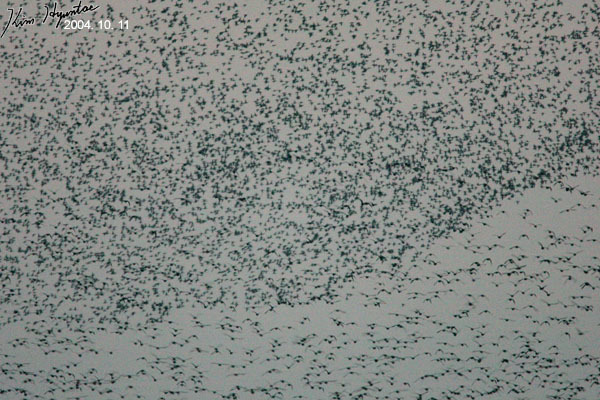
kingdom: Animalia
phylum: Chordata
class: Aves
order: Anseriformes
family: Anatidae
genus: Sibirionetta
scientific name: Sibirionetta formosa
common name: Baikal teal
